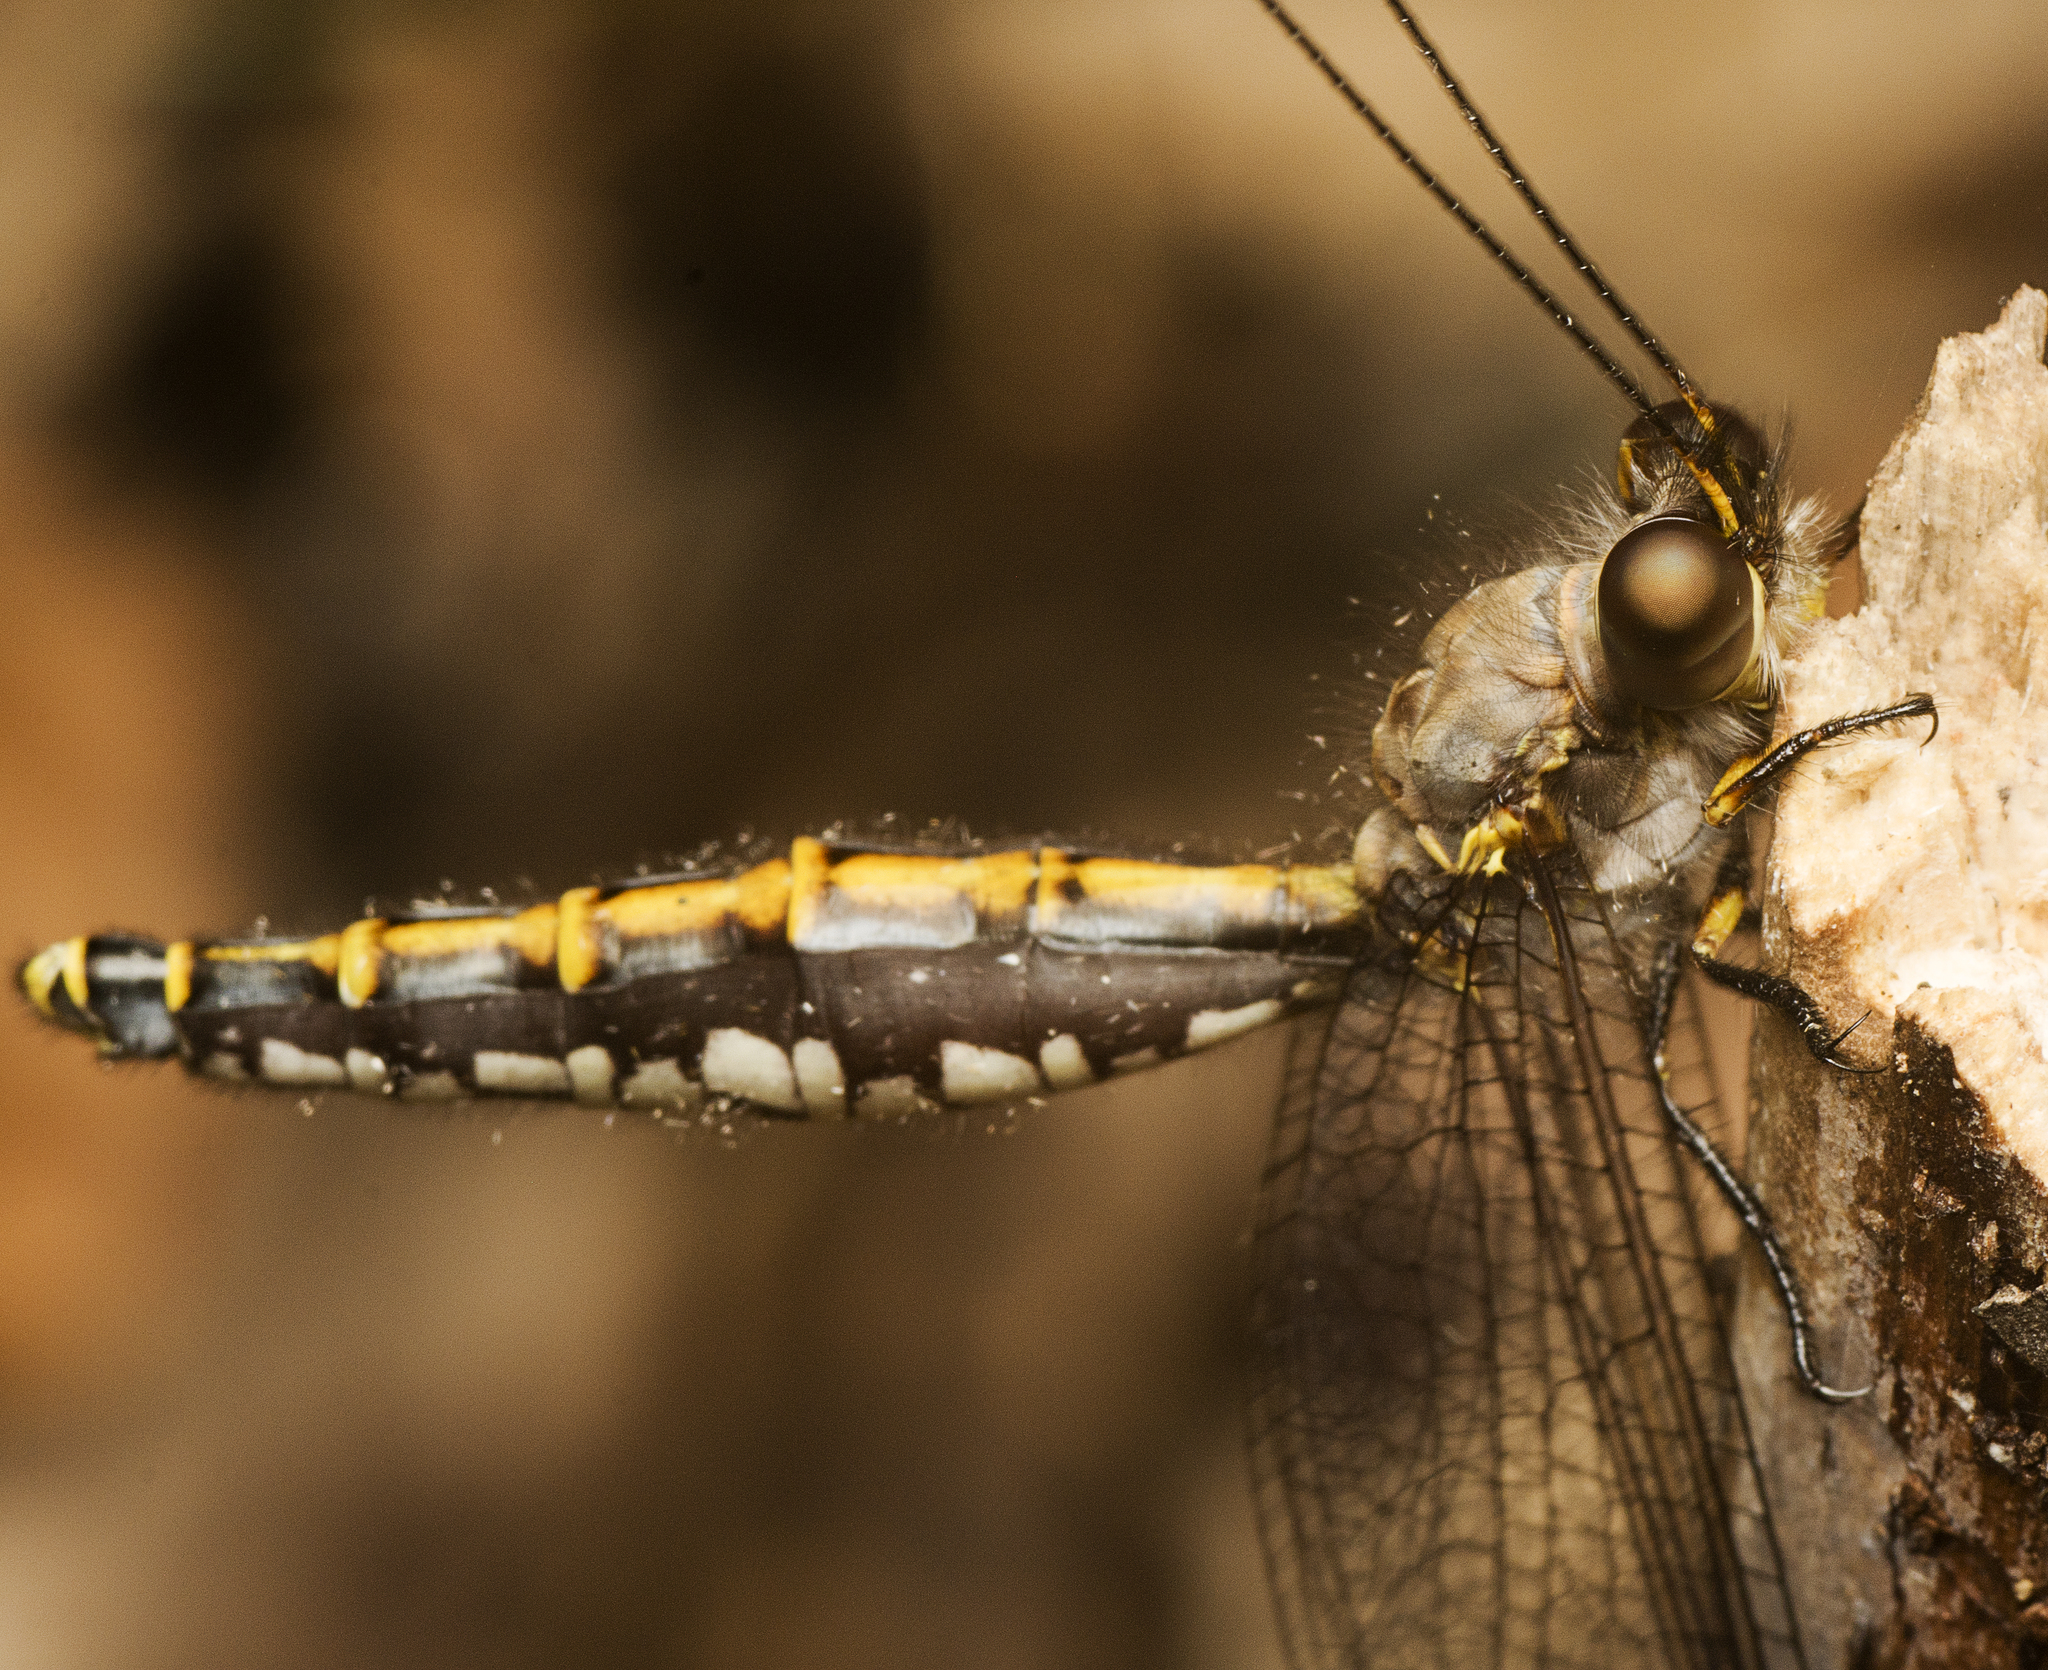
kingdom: Animalia
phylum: Arthropoda
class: Insecta
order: Neuroptera
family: Ascalaphidae
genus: Suhpalacsa
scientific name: Suhpalacsa subtrahens
